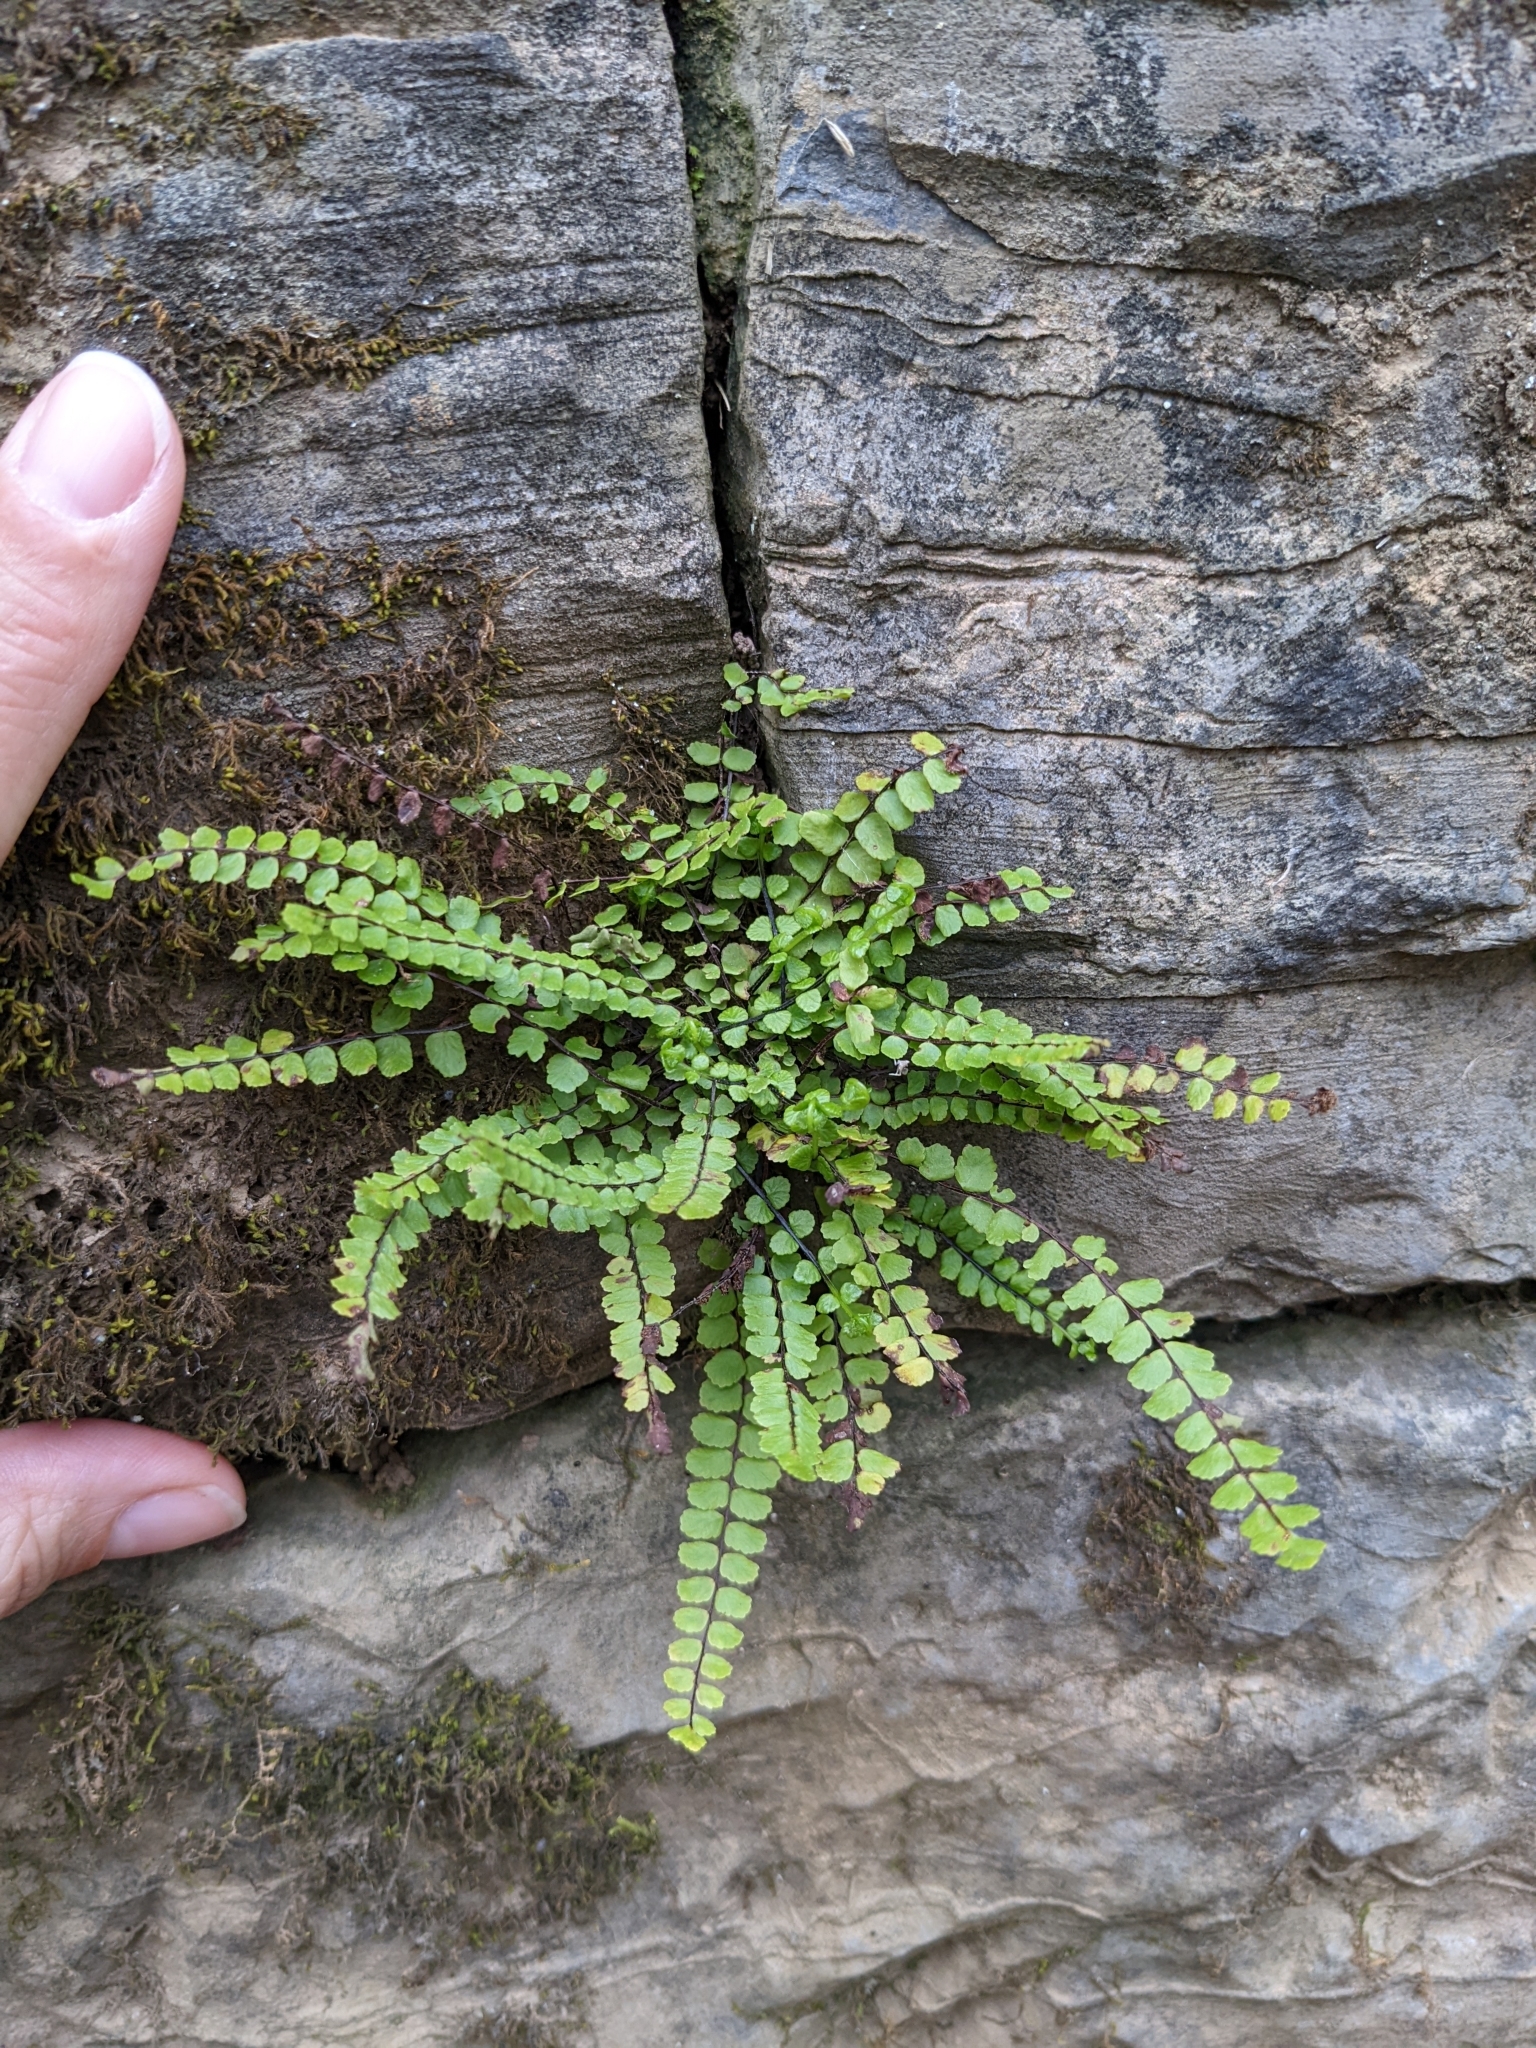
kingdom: Plantae
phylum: Tracheophyta
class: Polypodiopsida
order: Polypodiales
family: Aspleniaceae
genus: Asplenium
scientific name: Asplenium trichomanes
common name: Maidenhair spleenwort
